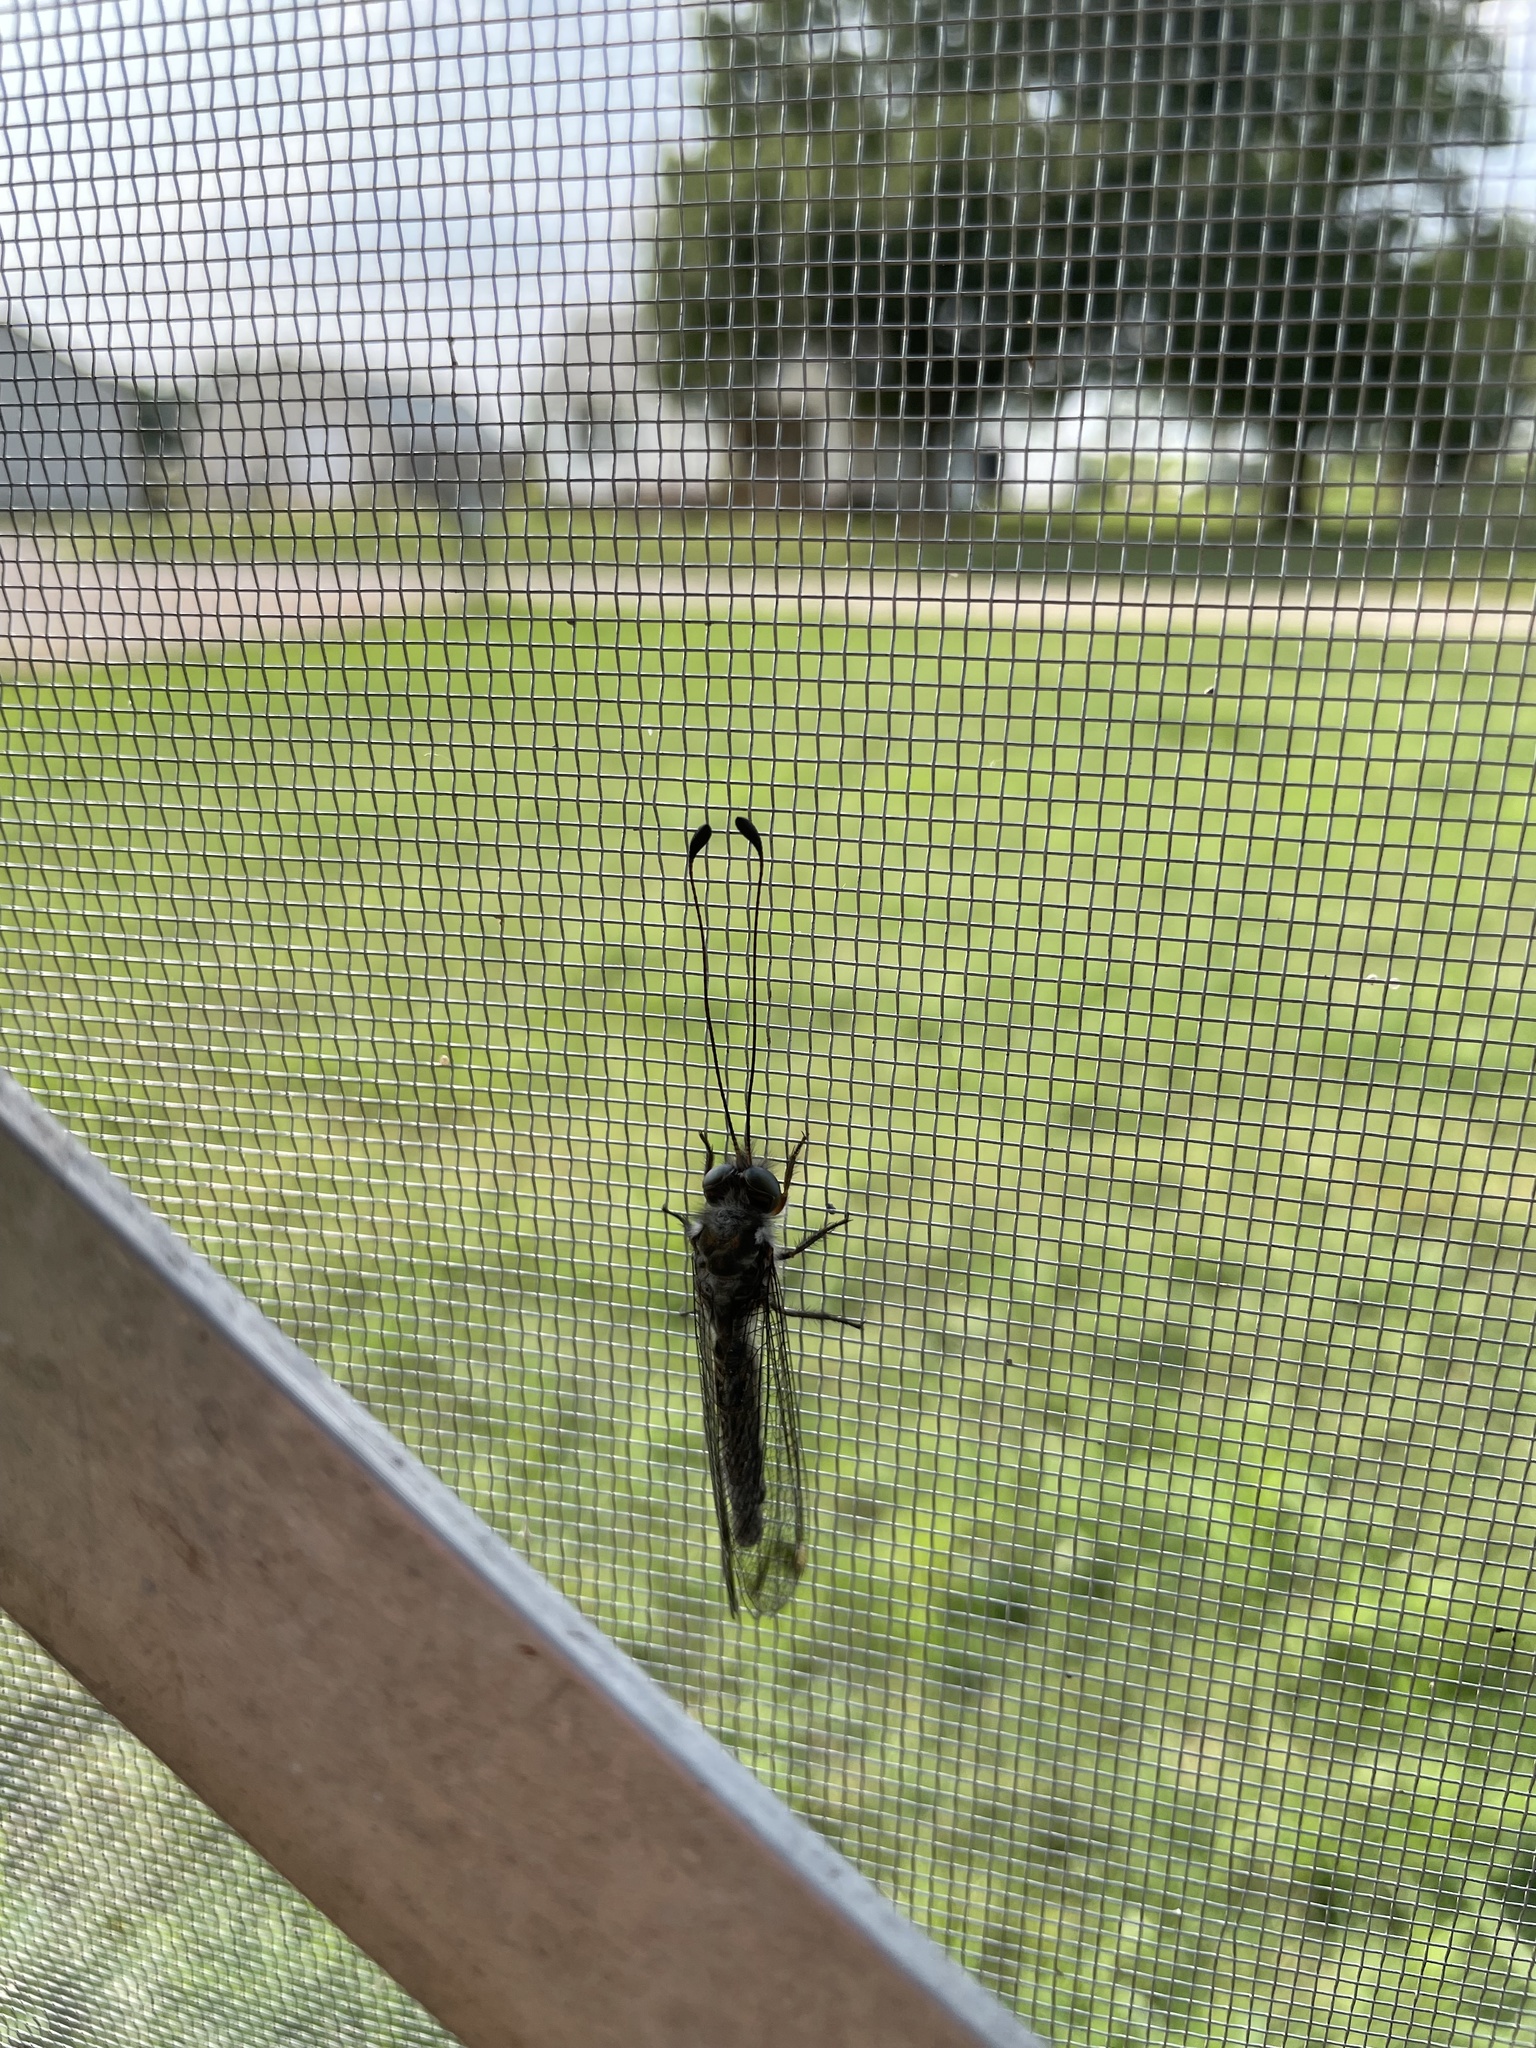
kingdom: Animalia
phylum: Arthropoda
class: Insecta
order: Neuroptera
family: Ascalaphidae
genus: Ululodes
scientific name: Ululodes quadripunctatus
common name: Four-spotted owlfly
